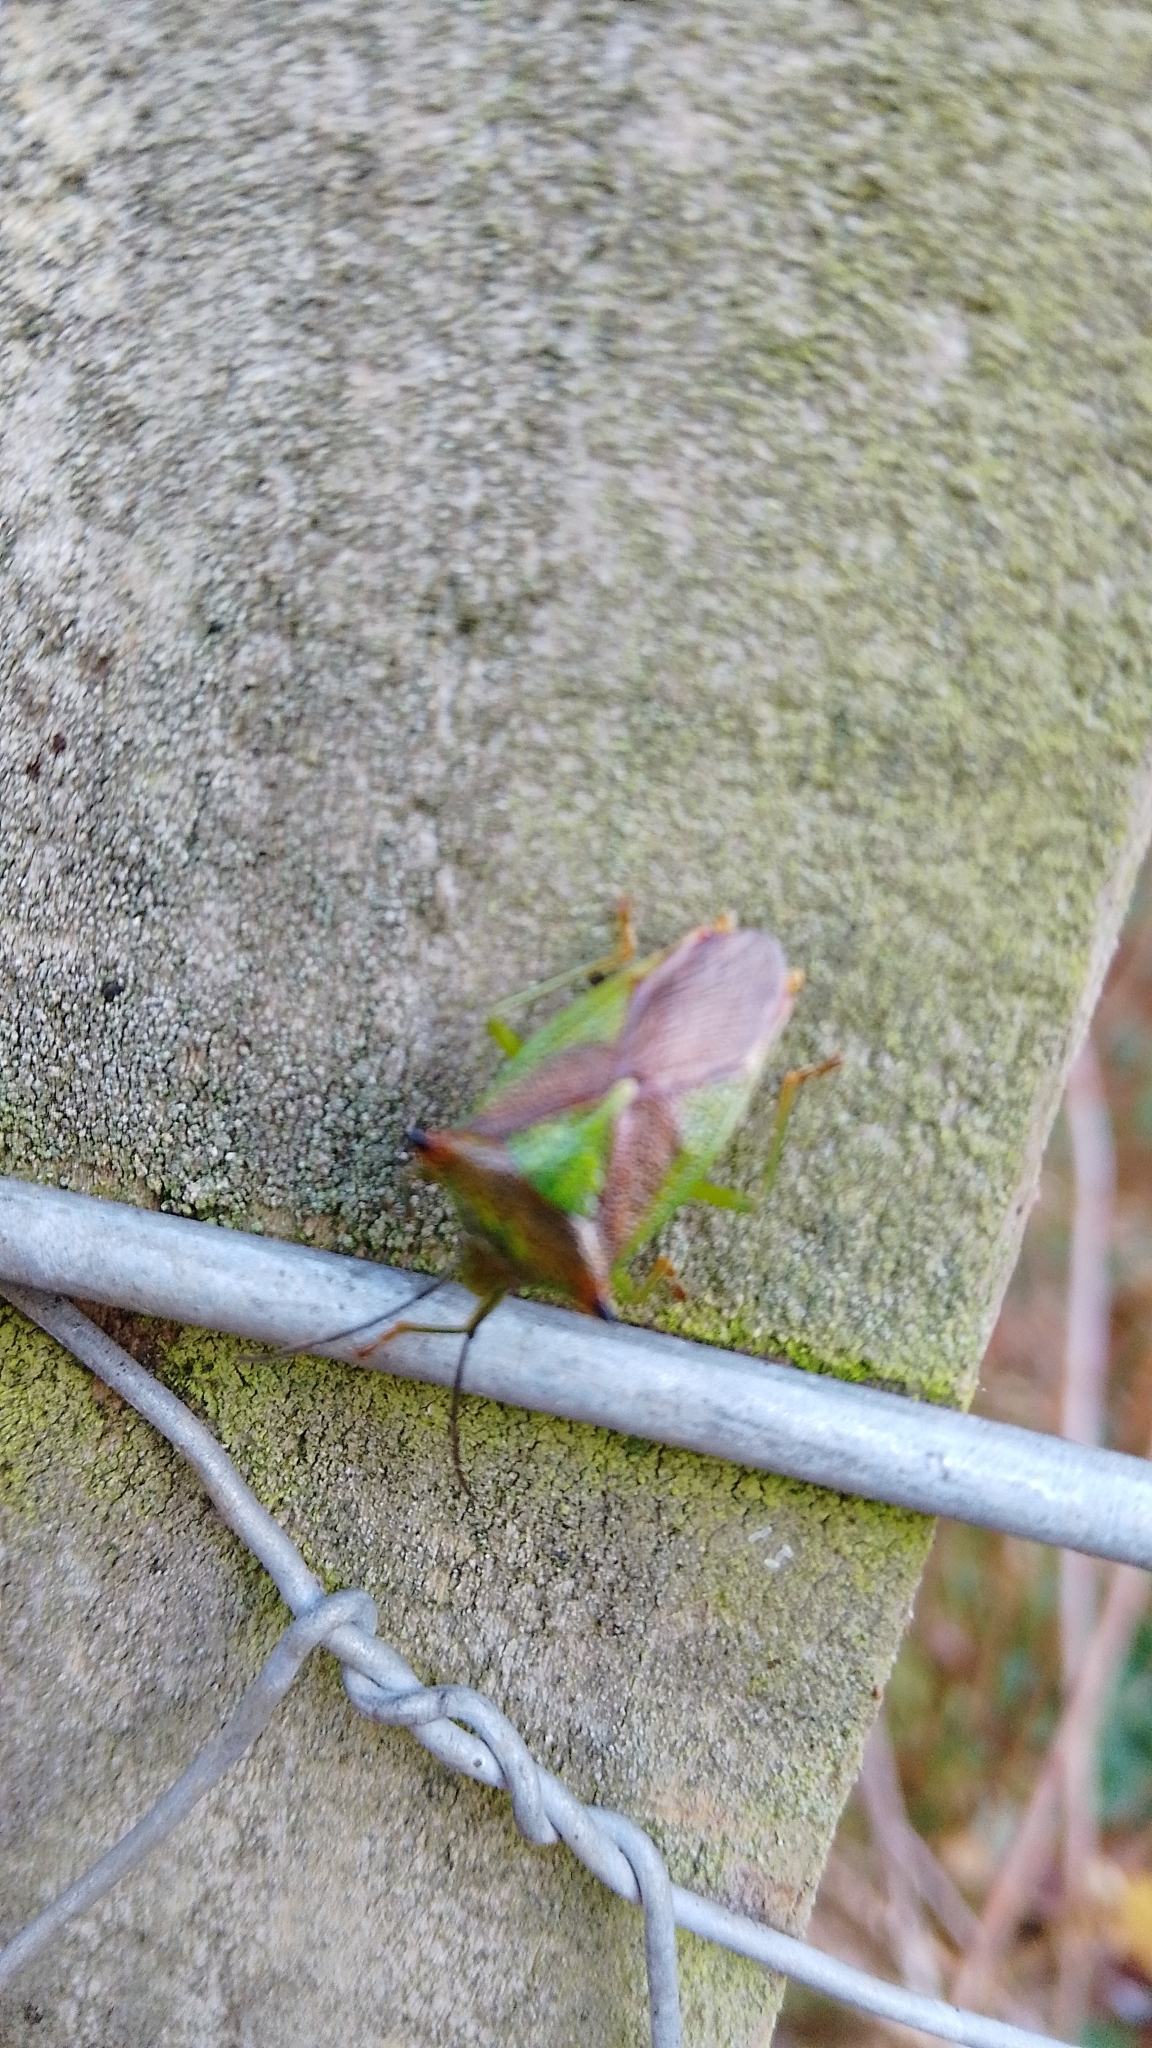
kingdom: Animalia
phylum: Arthropoda
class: Insecta
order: Hemiptera
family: Acanthosomatidae
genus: Acanthosoma
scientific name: Acanthosoma haemorrhoidale
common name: Hawthorn shieldbug
